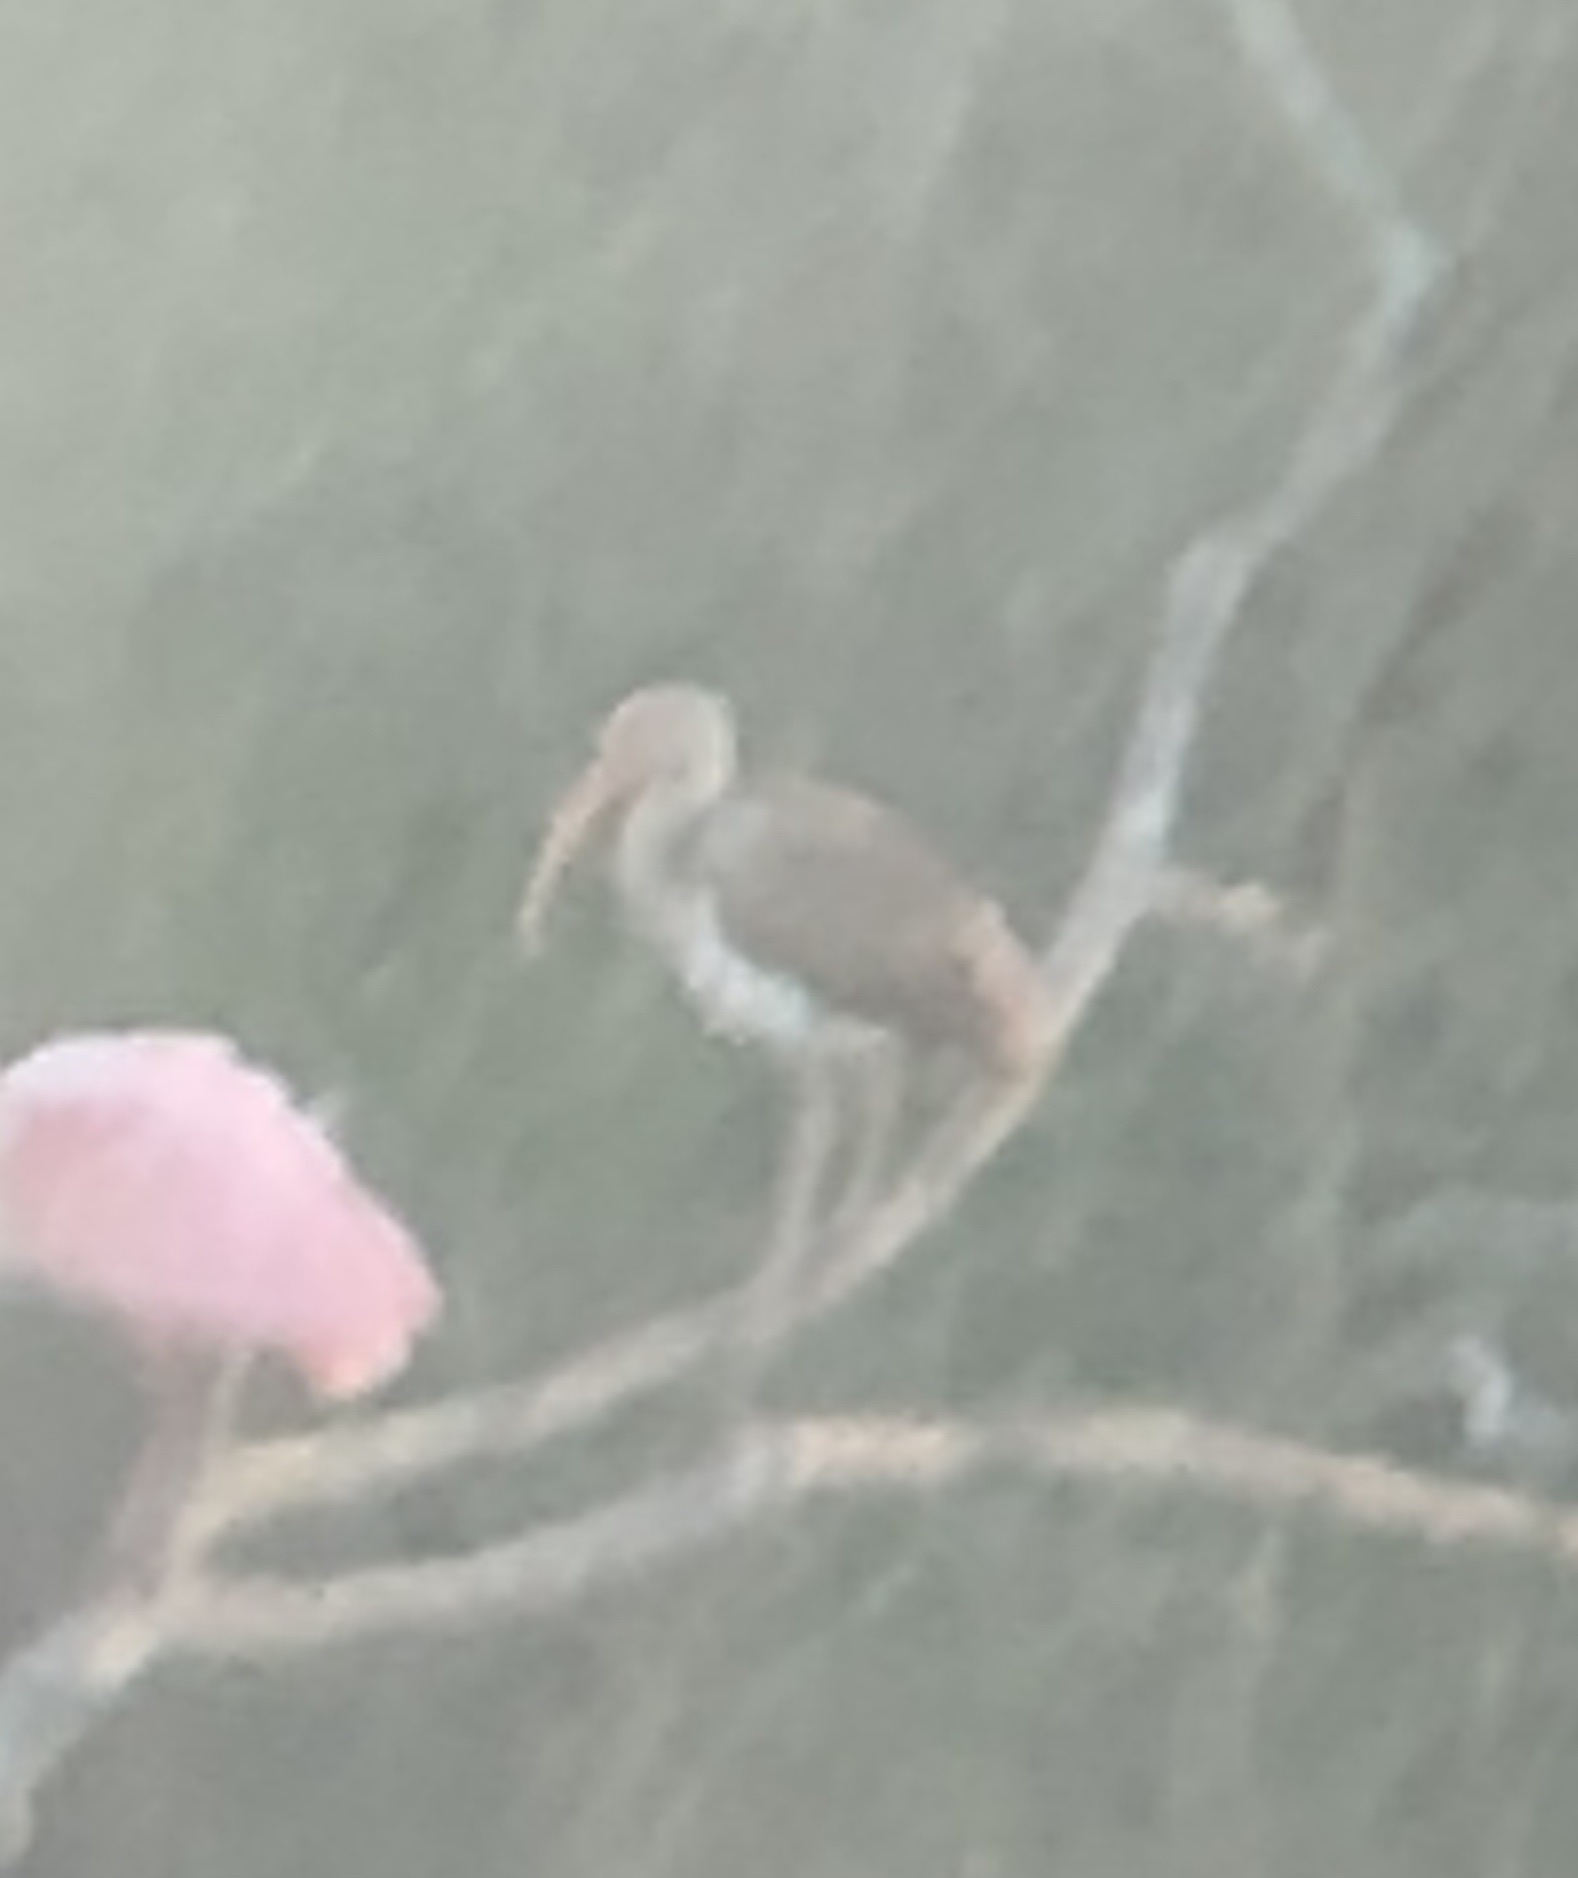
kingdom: Animalia
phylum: Chordata
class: Aves
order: Pelecaniformes
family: Threskiornithidae
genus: Eudocimus
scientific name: Eudocimus albus
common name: White ibis
